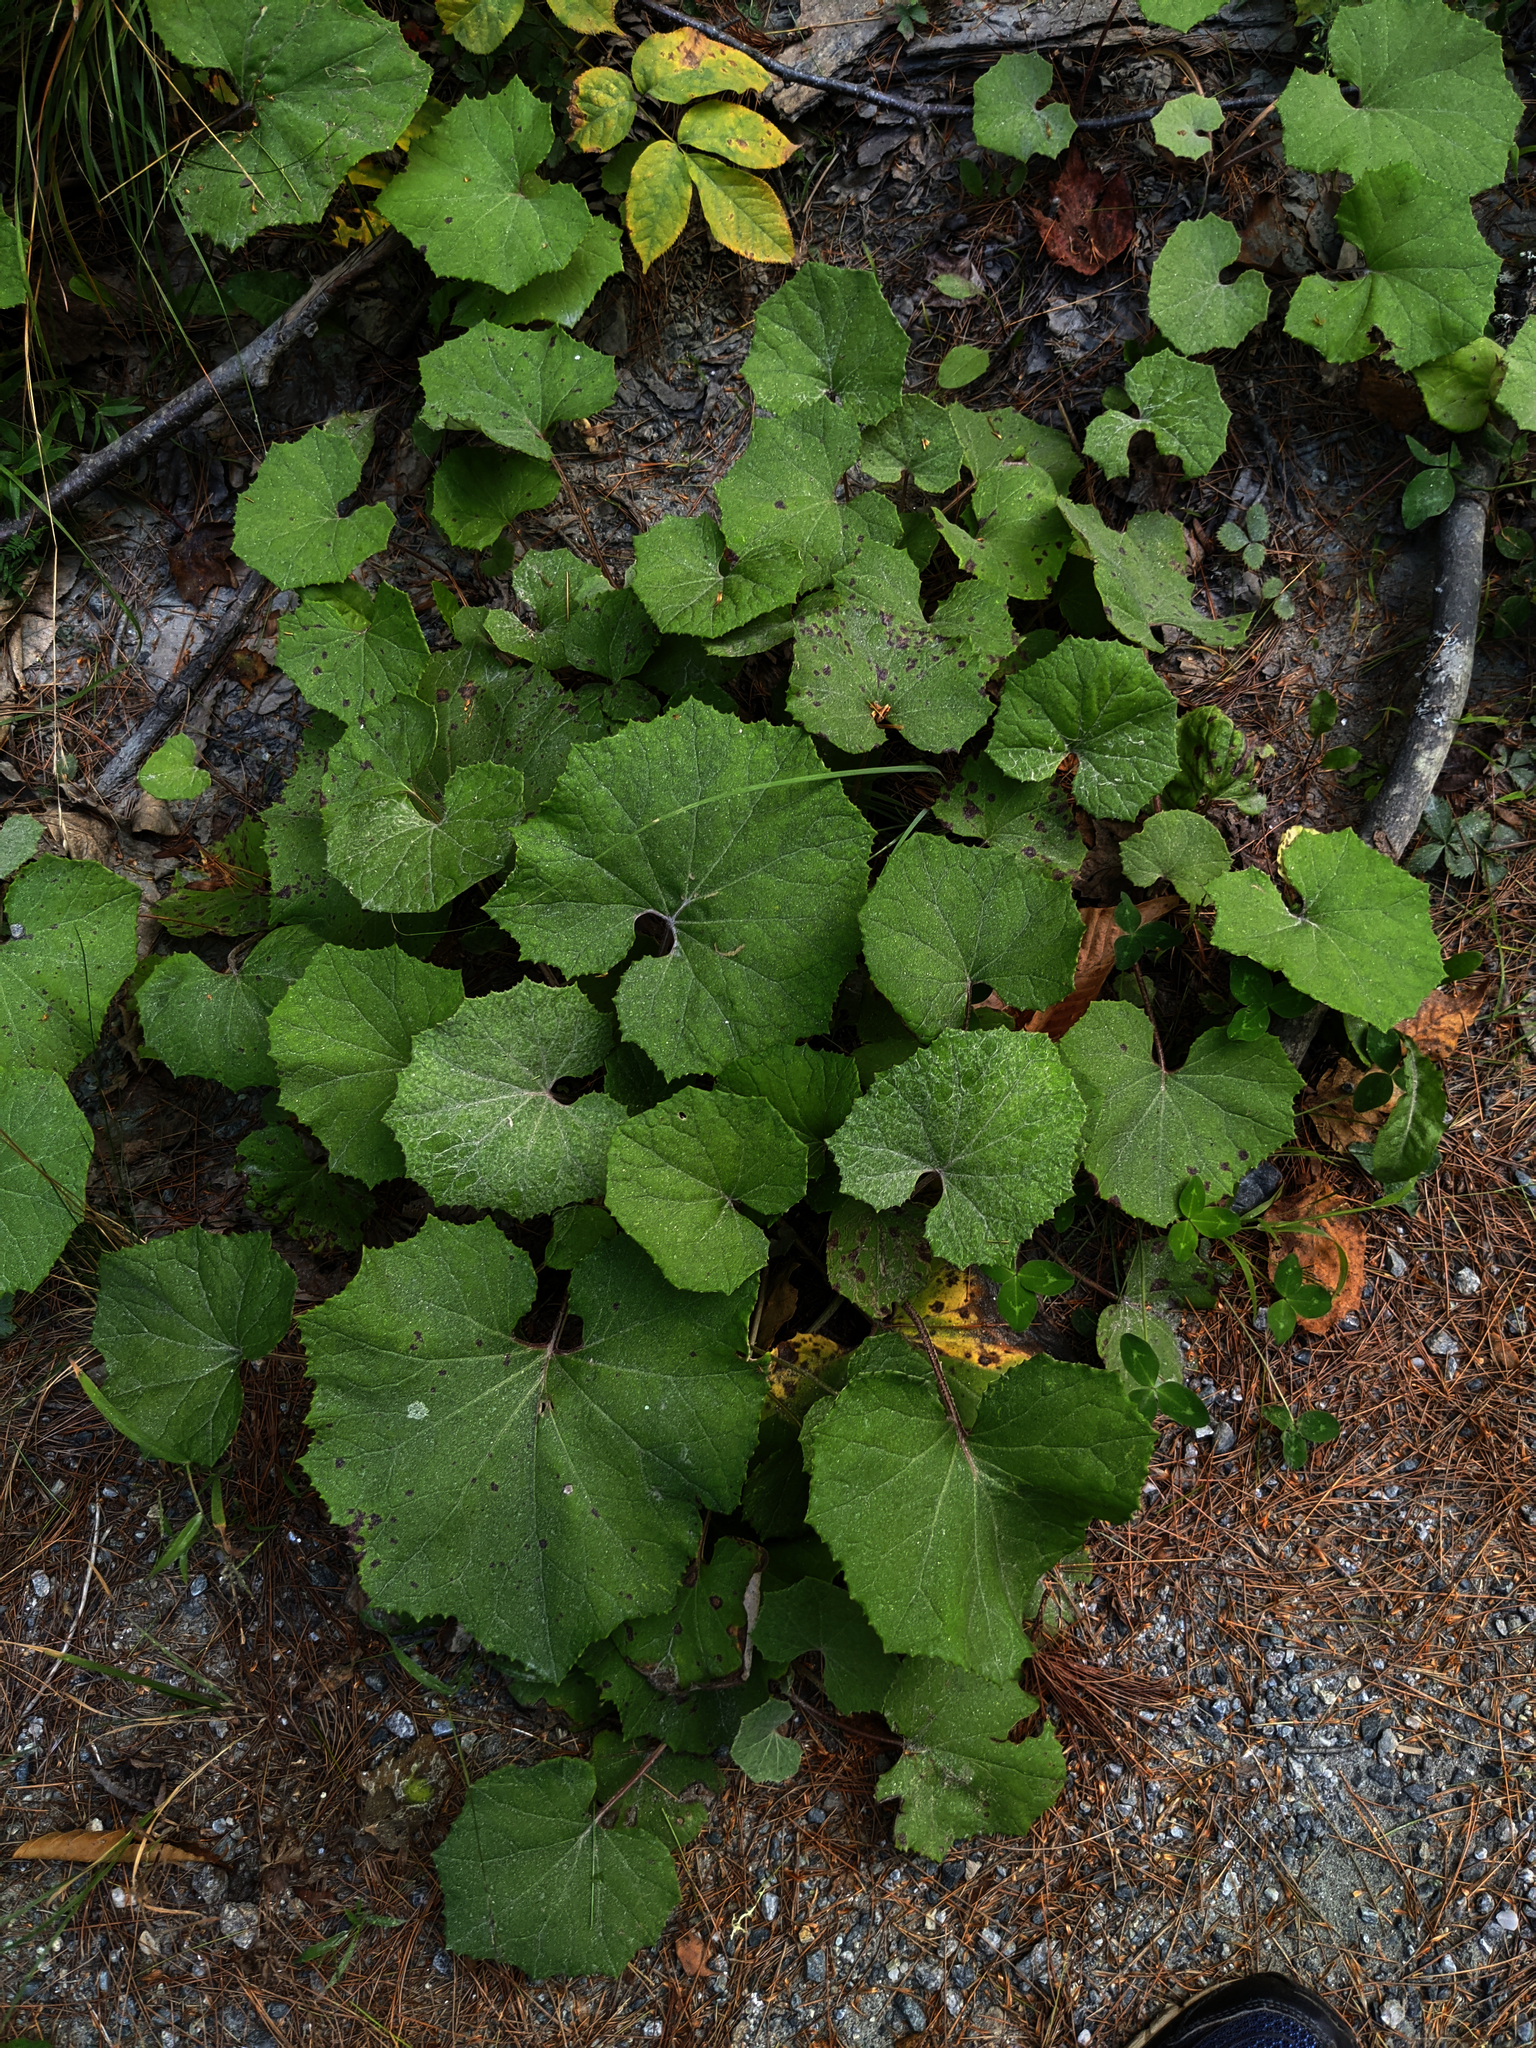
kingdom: Plantae
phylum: Tracheophyta
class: Magnoliopsida
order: Asterales
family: Asteraceae
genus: Tussilago
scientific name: Tussilago farfara
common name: Coltsfoot
